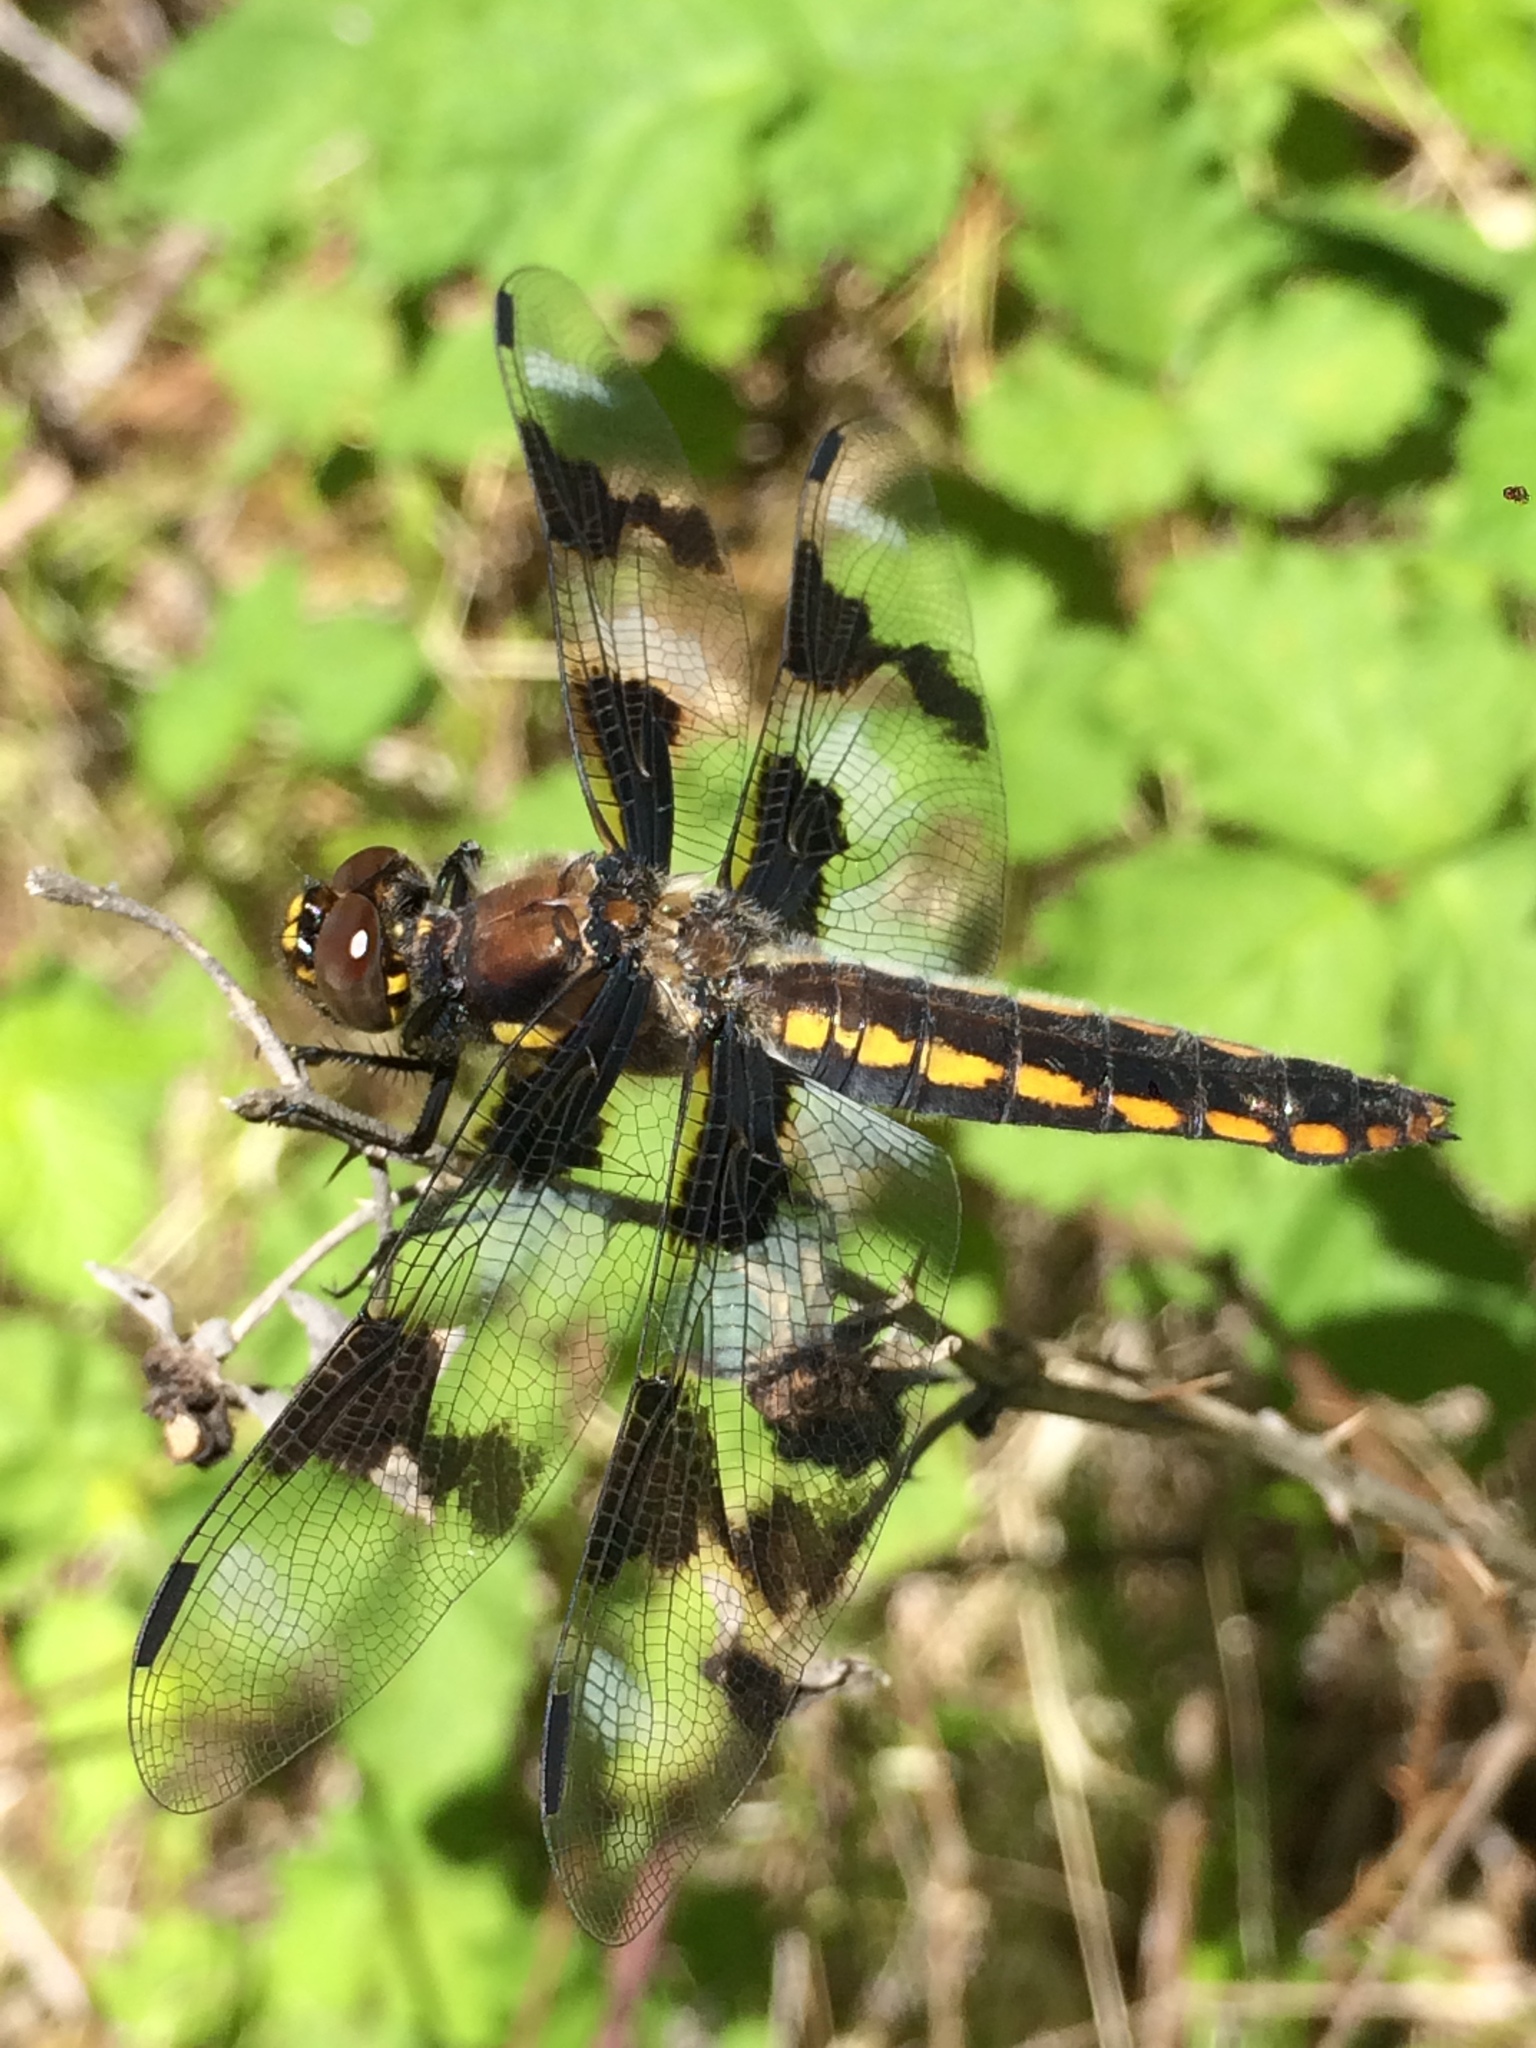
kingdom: Animalia
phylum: Arthropoda
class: Insecta
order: Odonata
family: Libellulidae
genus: Libellula
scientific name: Libellula forensis
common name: Eight-spotted skimmer
